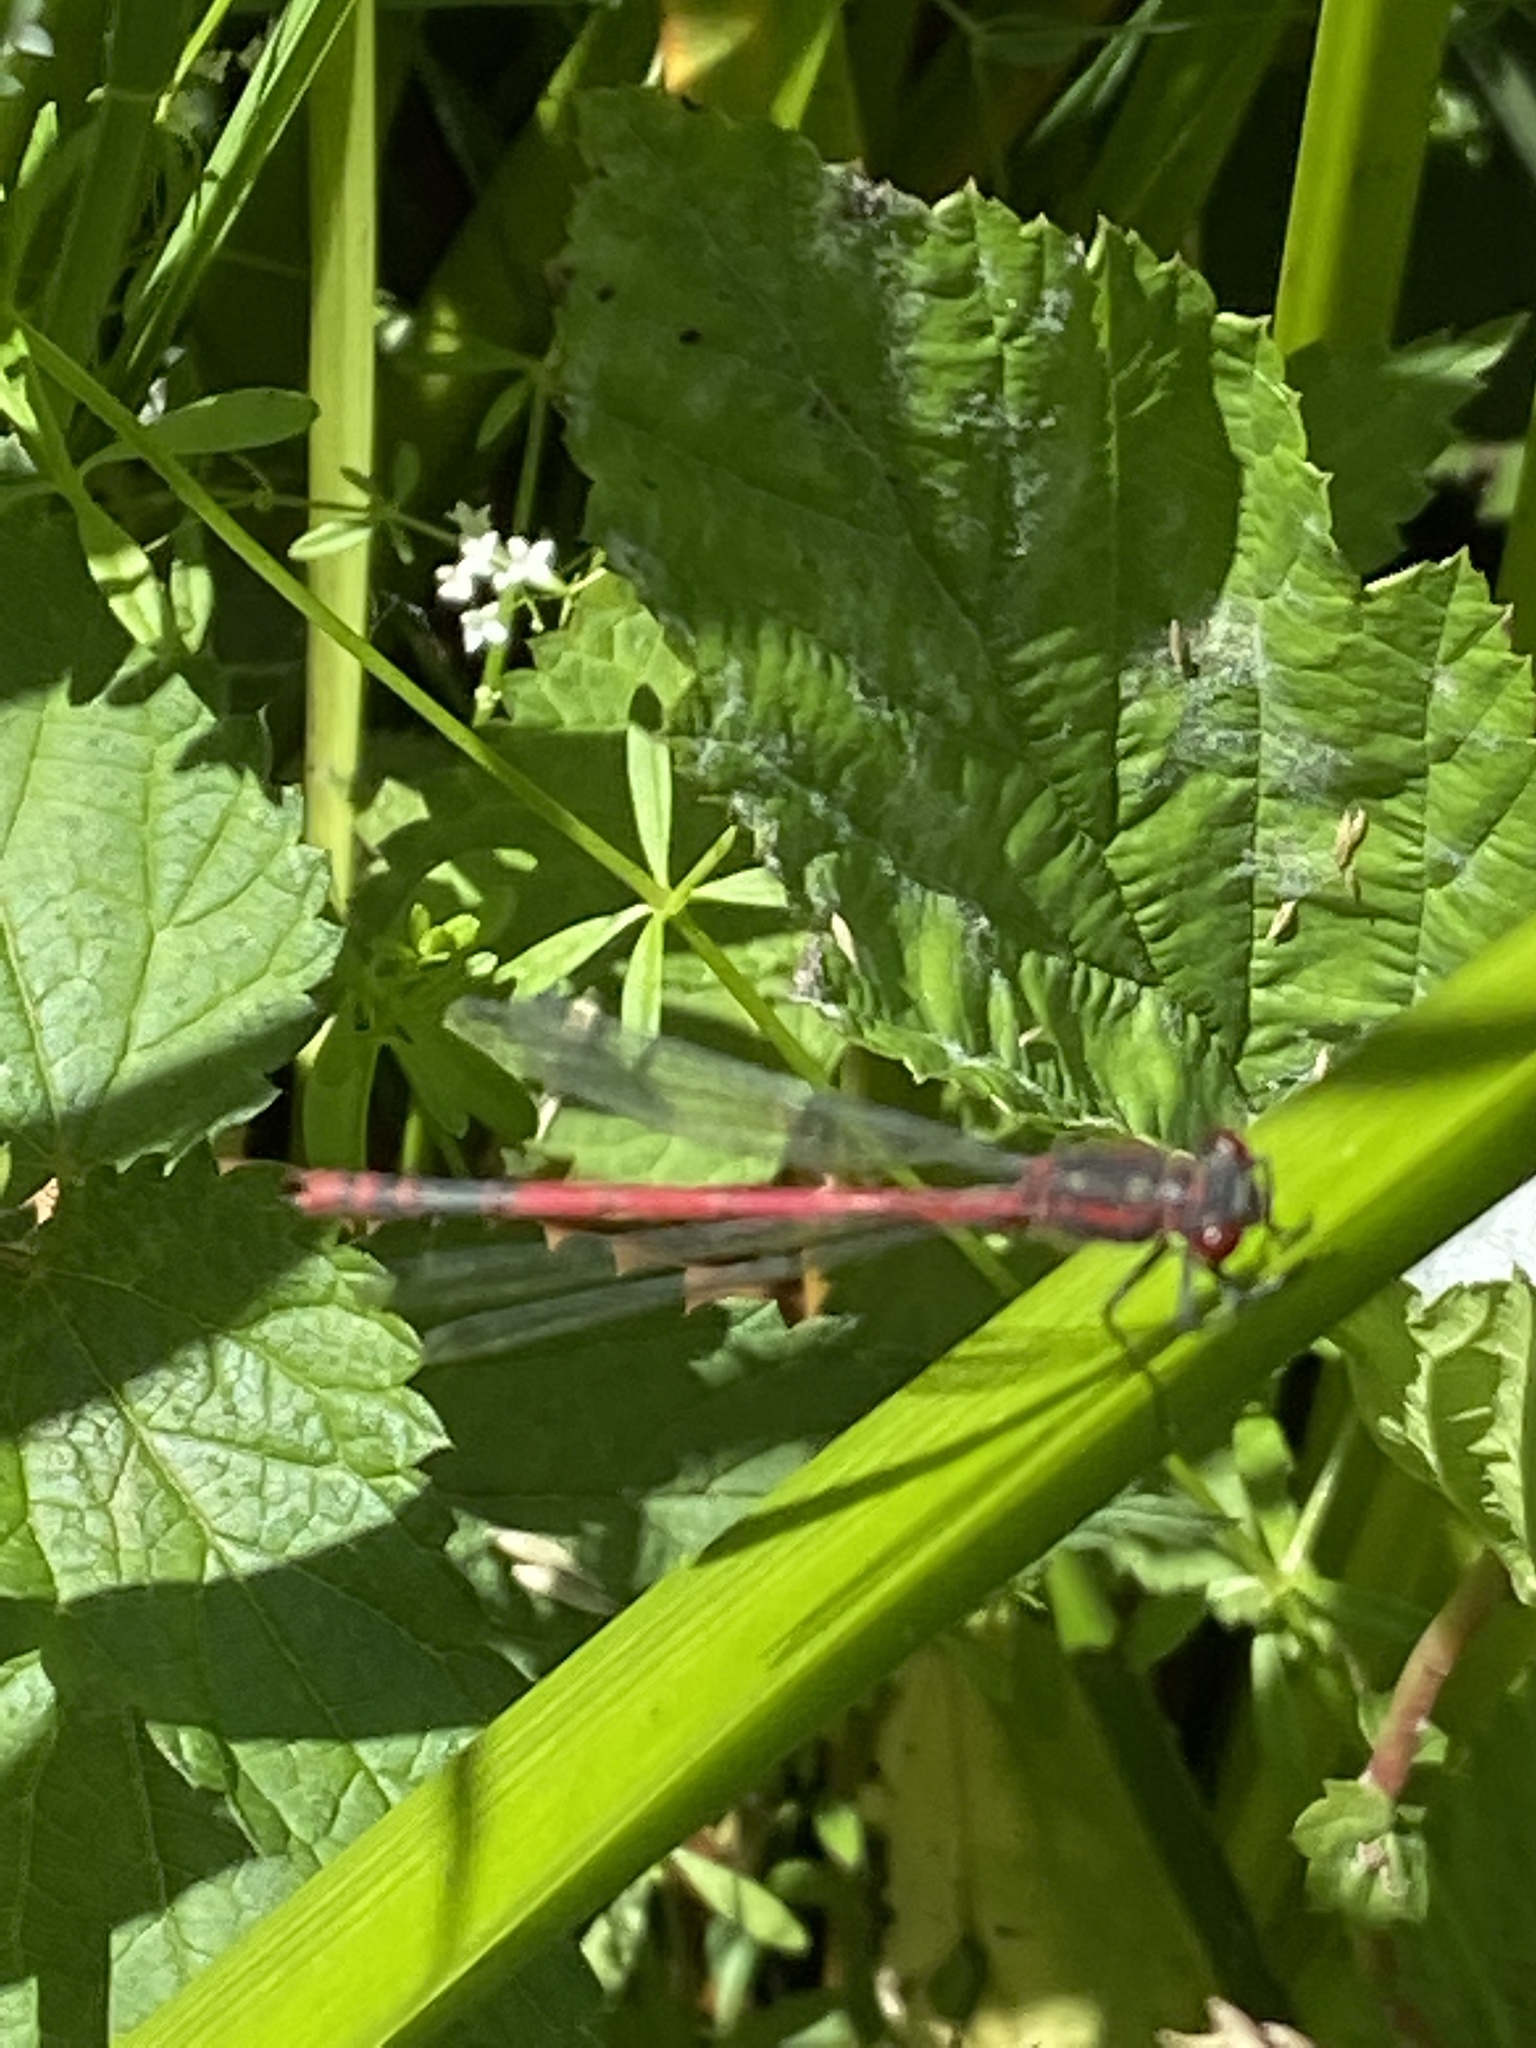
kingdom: Animalia
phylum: Arthropoda
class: Insecta
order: Odonata
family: Coenagrionidae
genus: Pyrrhosoma
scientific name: Pyrrhosoma nymphula
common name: Large red damsel
